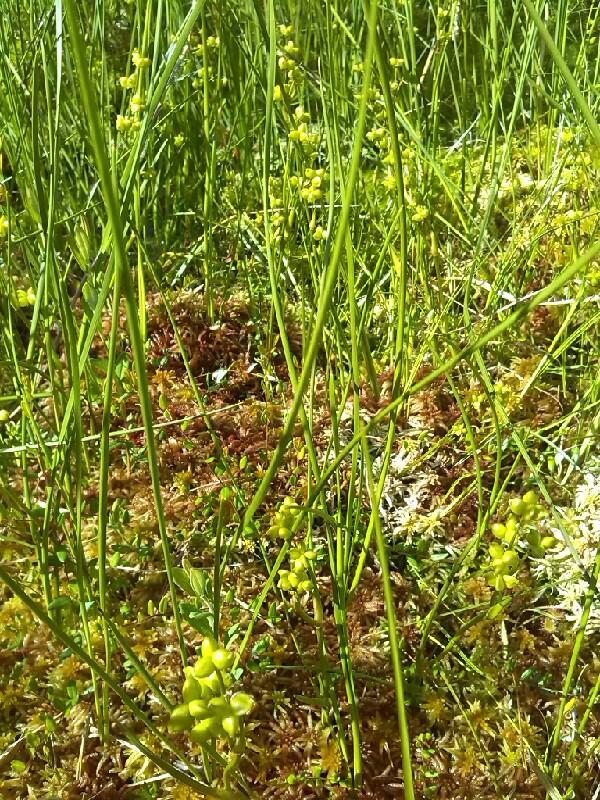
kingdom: Plantae
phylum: Tracheophyta
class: Liliopsida
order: Alismatales
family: Scheuchzeriaceae
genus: Scheuchzeria
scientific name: Scheuchzeria palustris
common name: Rannoch-rush
